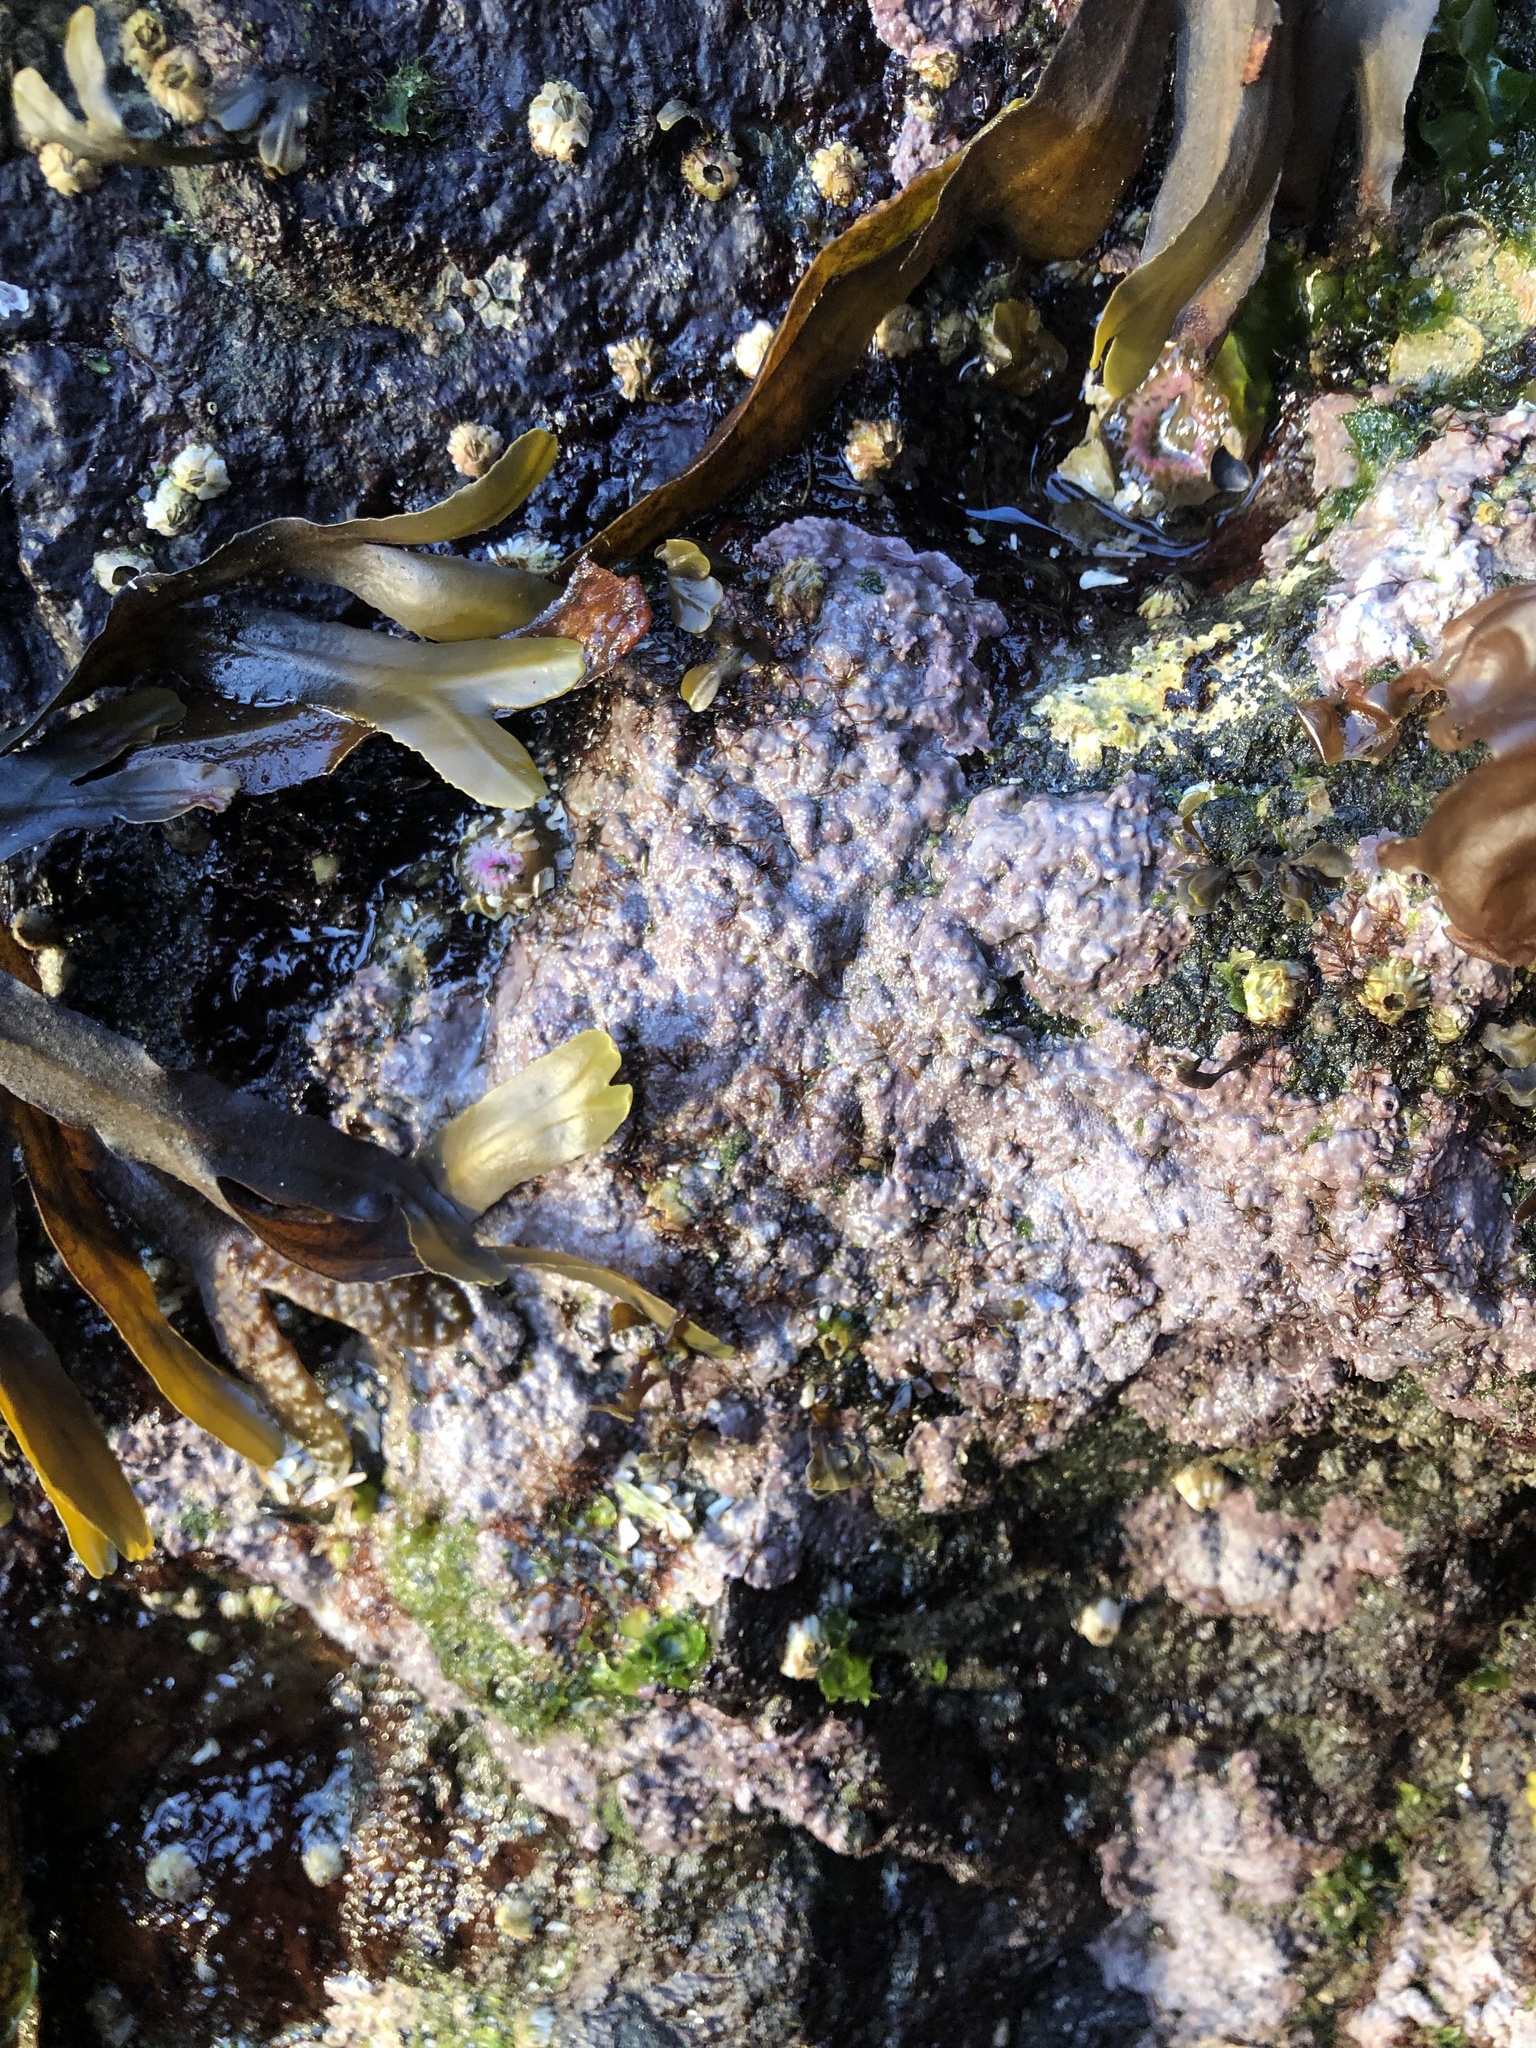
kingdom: Plantae
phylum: Rhodophyta
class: Florideophyceae
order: Corallinales
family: Corallinaceae
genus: Chamberlainium
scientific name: Chamberlainium tumidum
